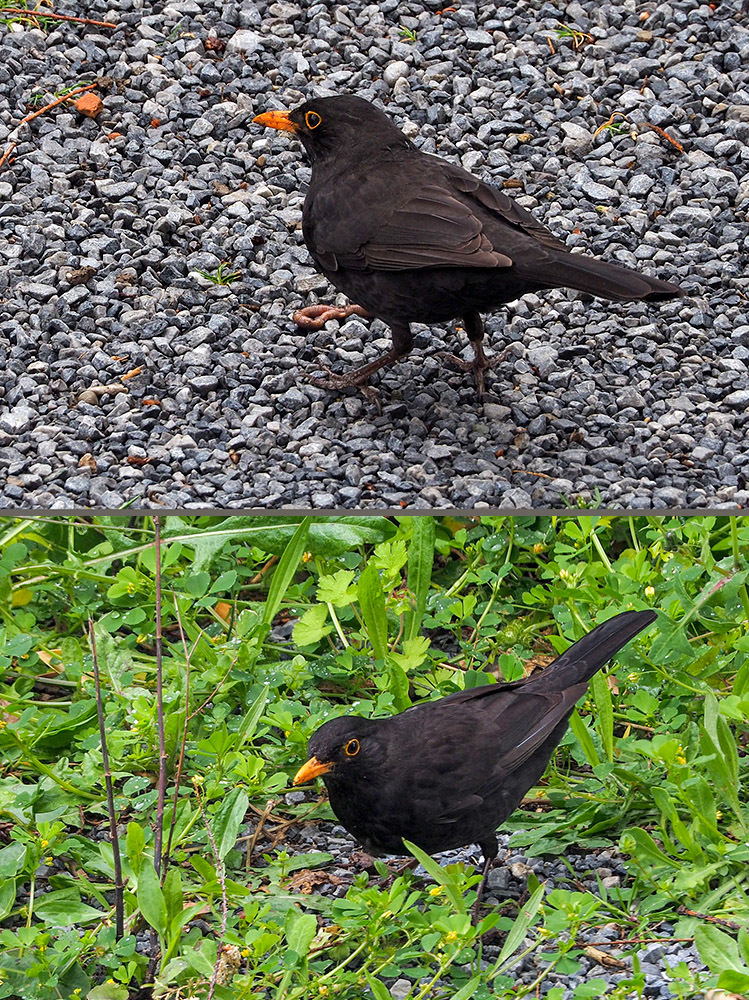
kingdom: Animalia
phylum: Chordata
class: Aves
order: Passeriformes
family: Turdidae
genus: Turdus
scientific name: Turdus merula
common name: Common blackbird
